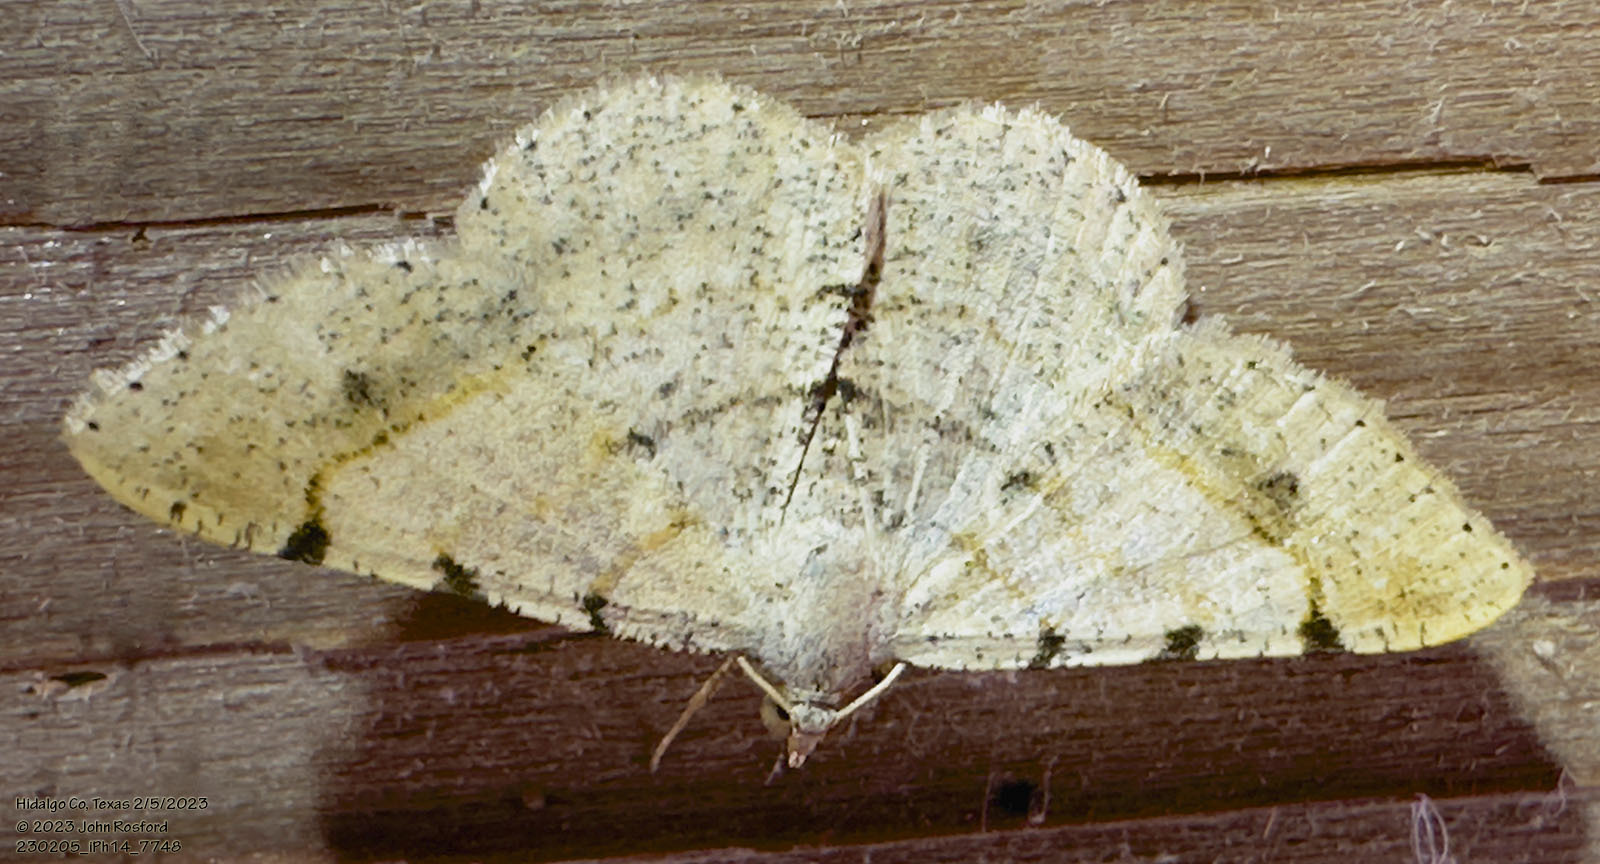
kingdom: Animalia
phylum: Arthropoda
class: Insecta
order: Lepidoptera
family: Geometridae
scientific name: Geometridae
